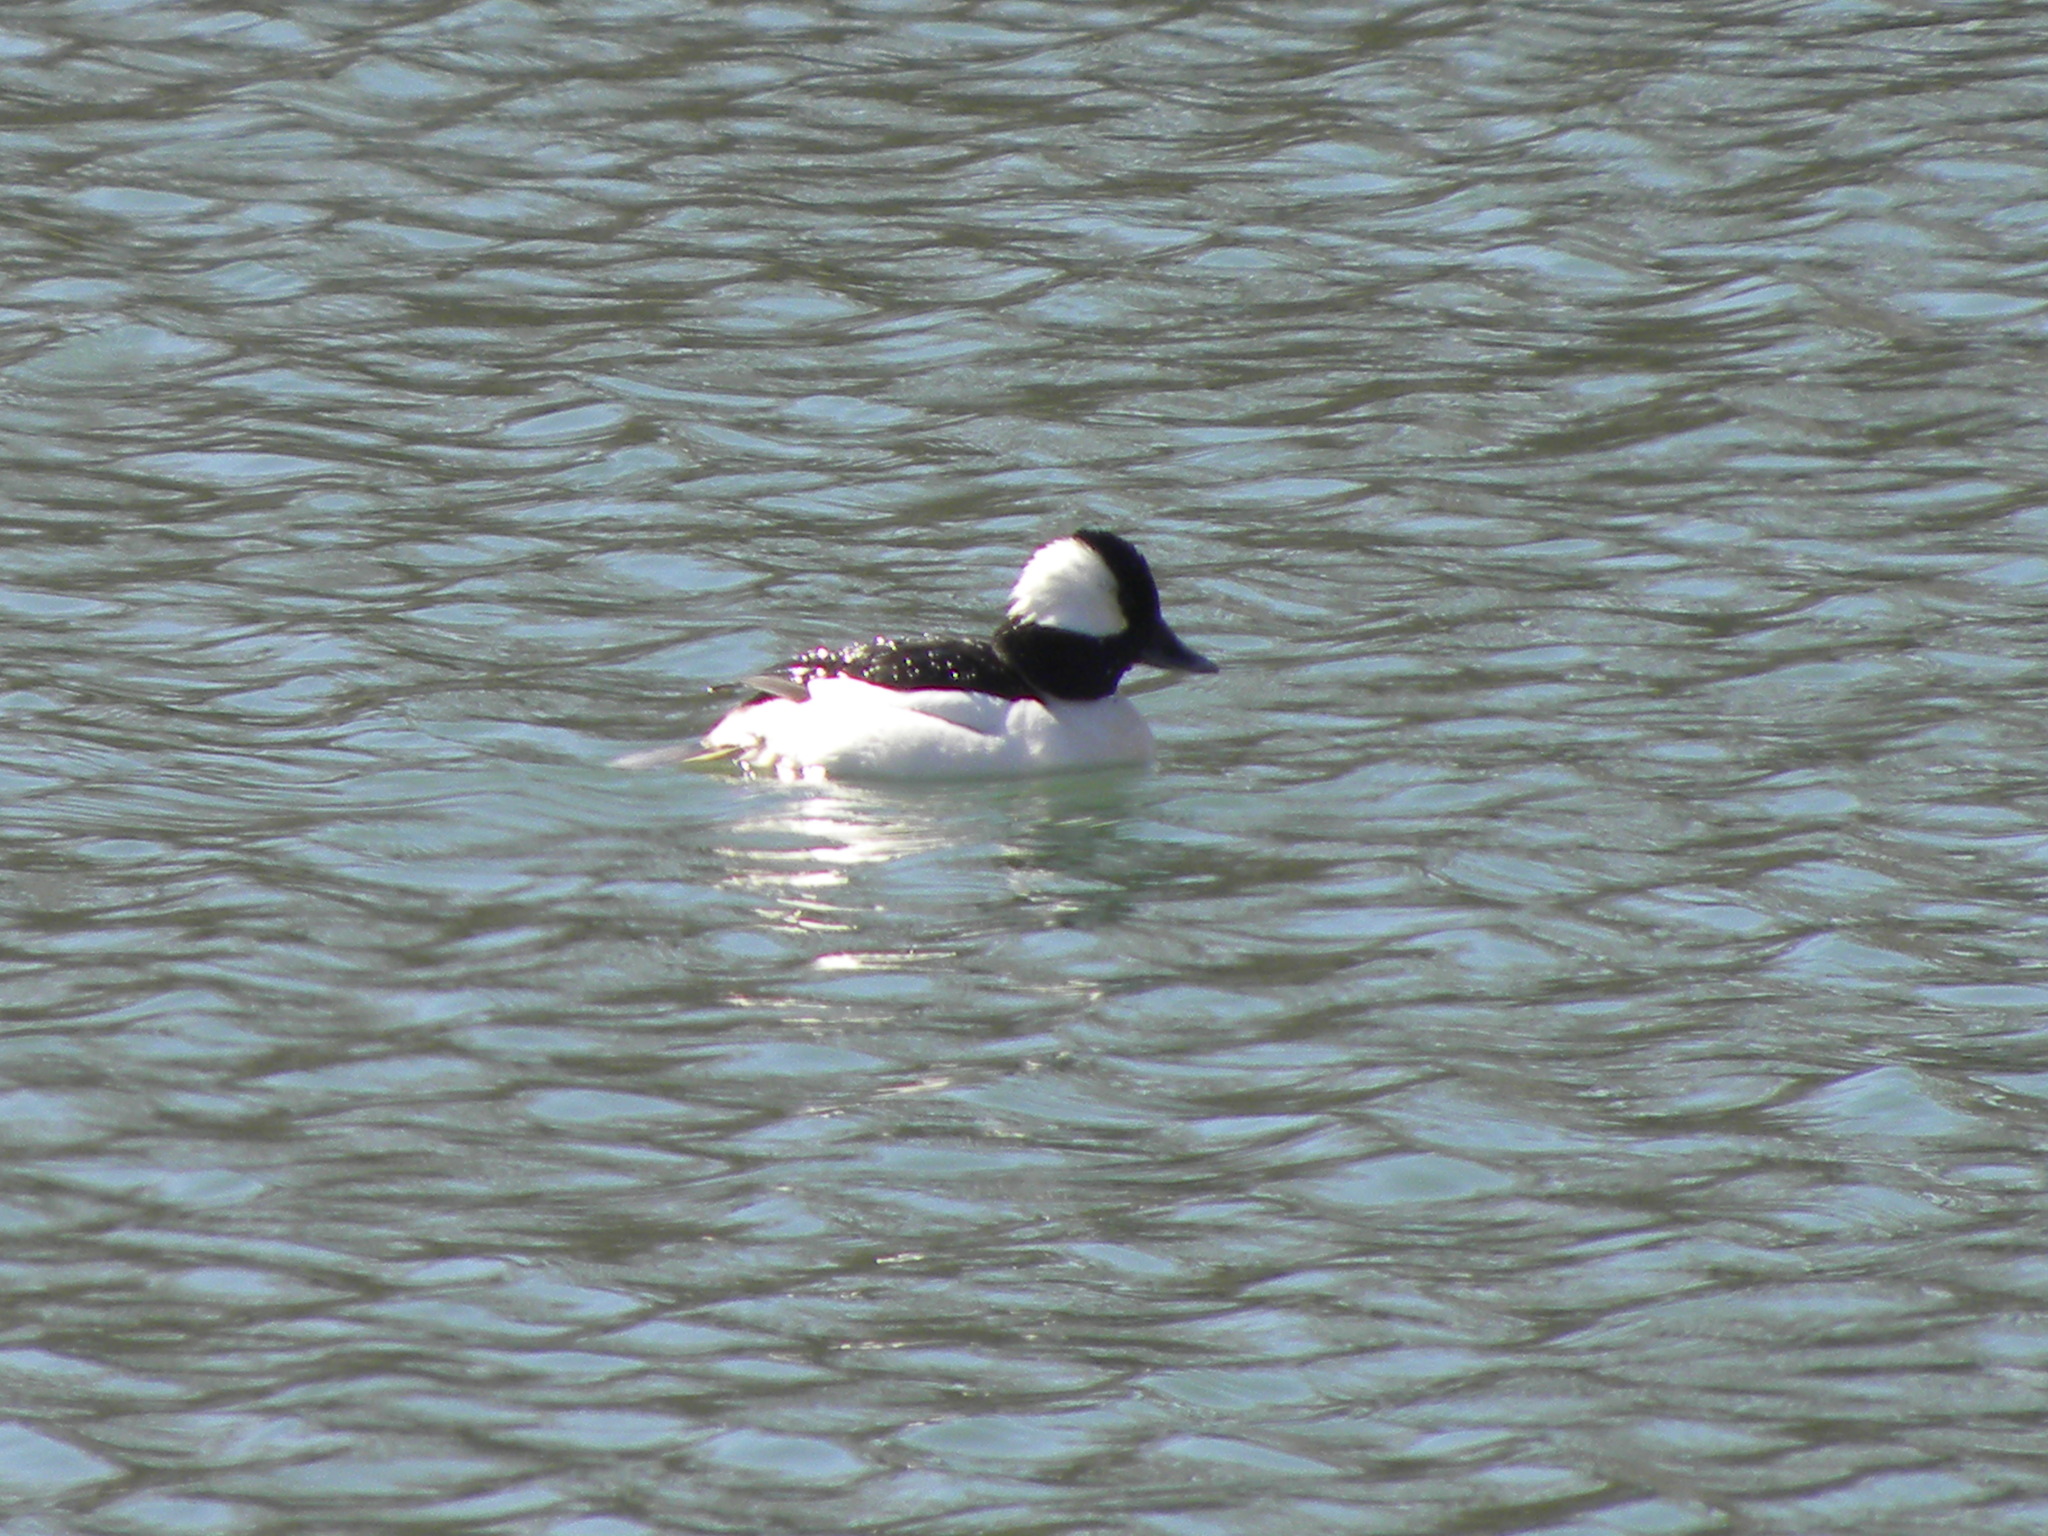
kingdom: Animalia
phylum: Chordata
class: Aves
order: Anseriformes
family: Anatidae
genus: Bucephala
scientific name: Bucephala albeola
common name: Bufflehead
